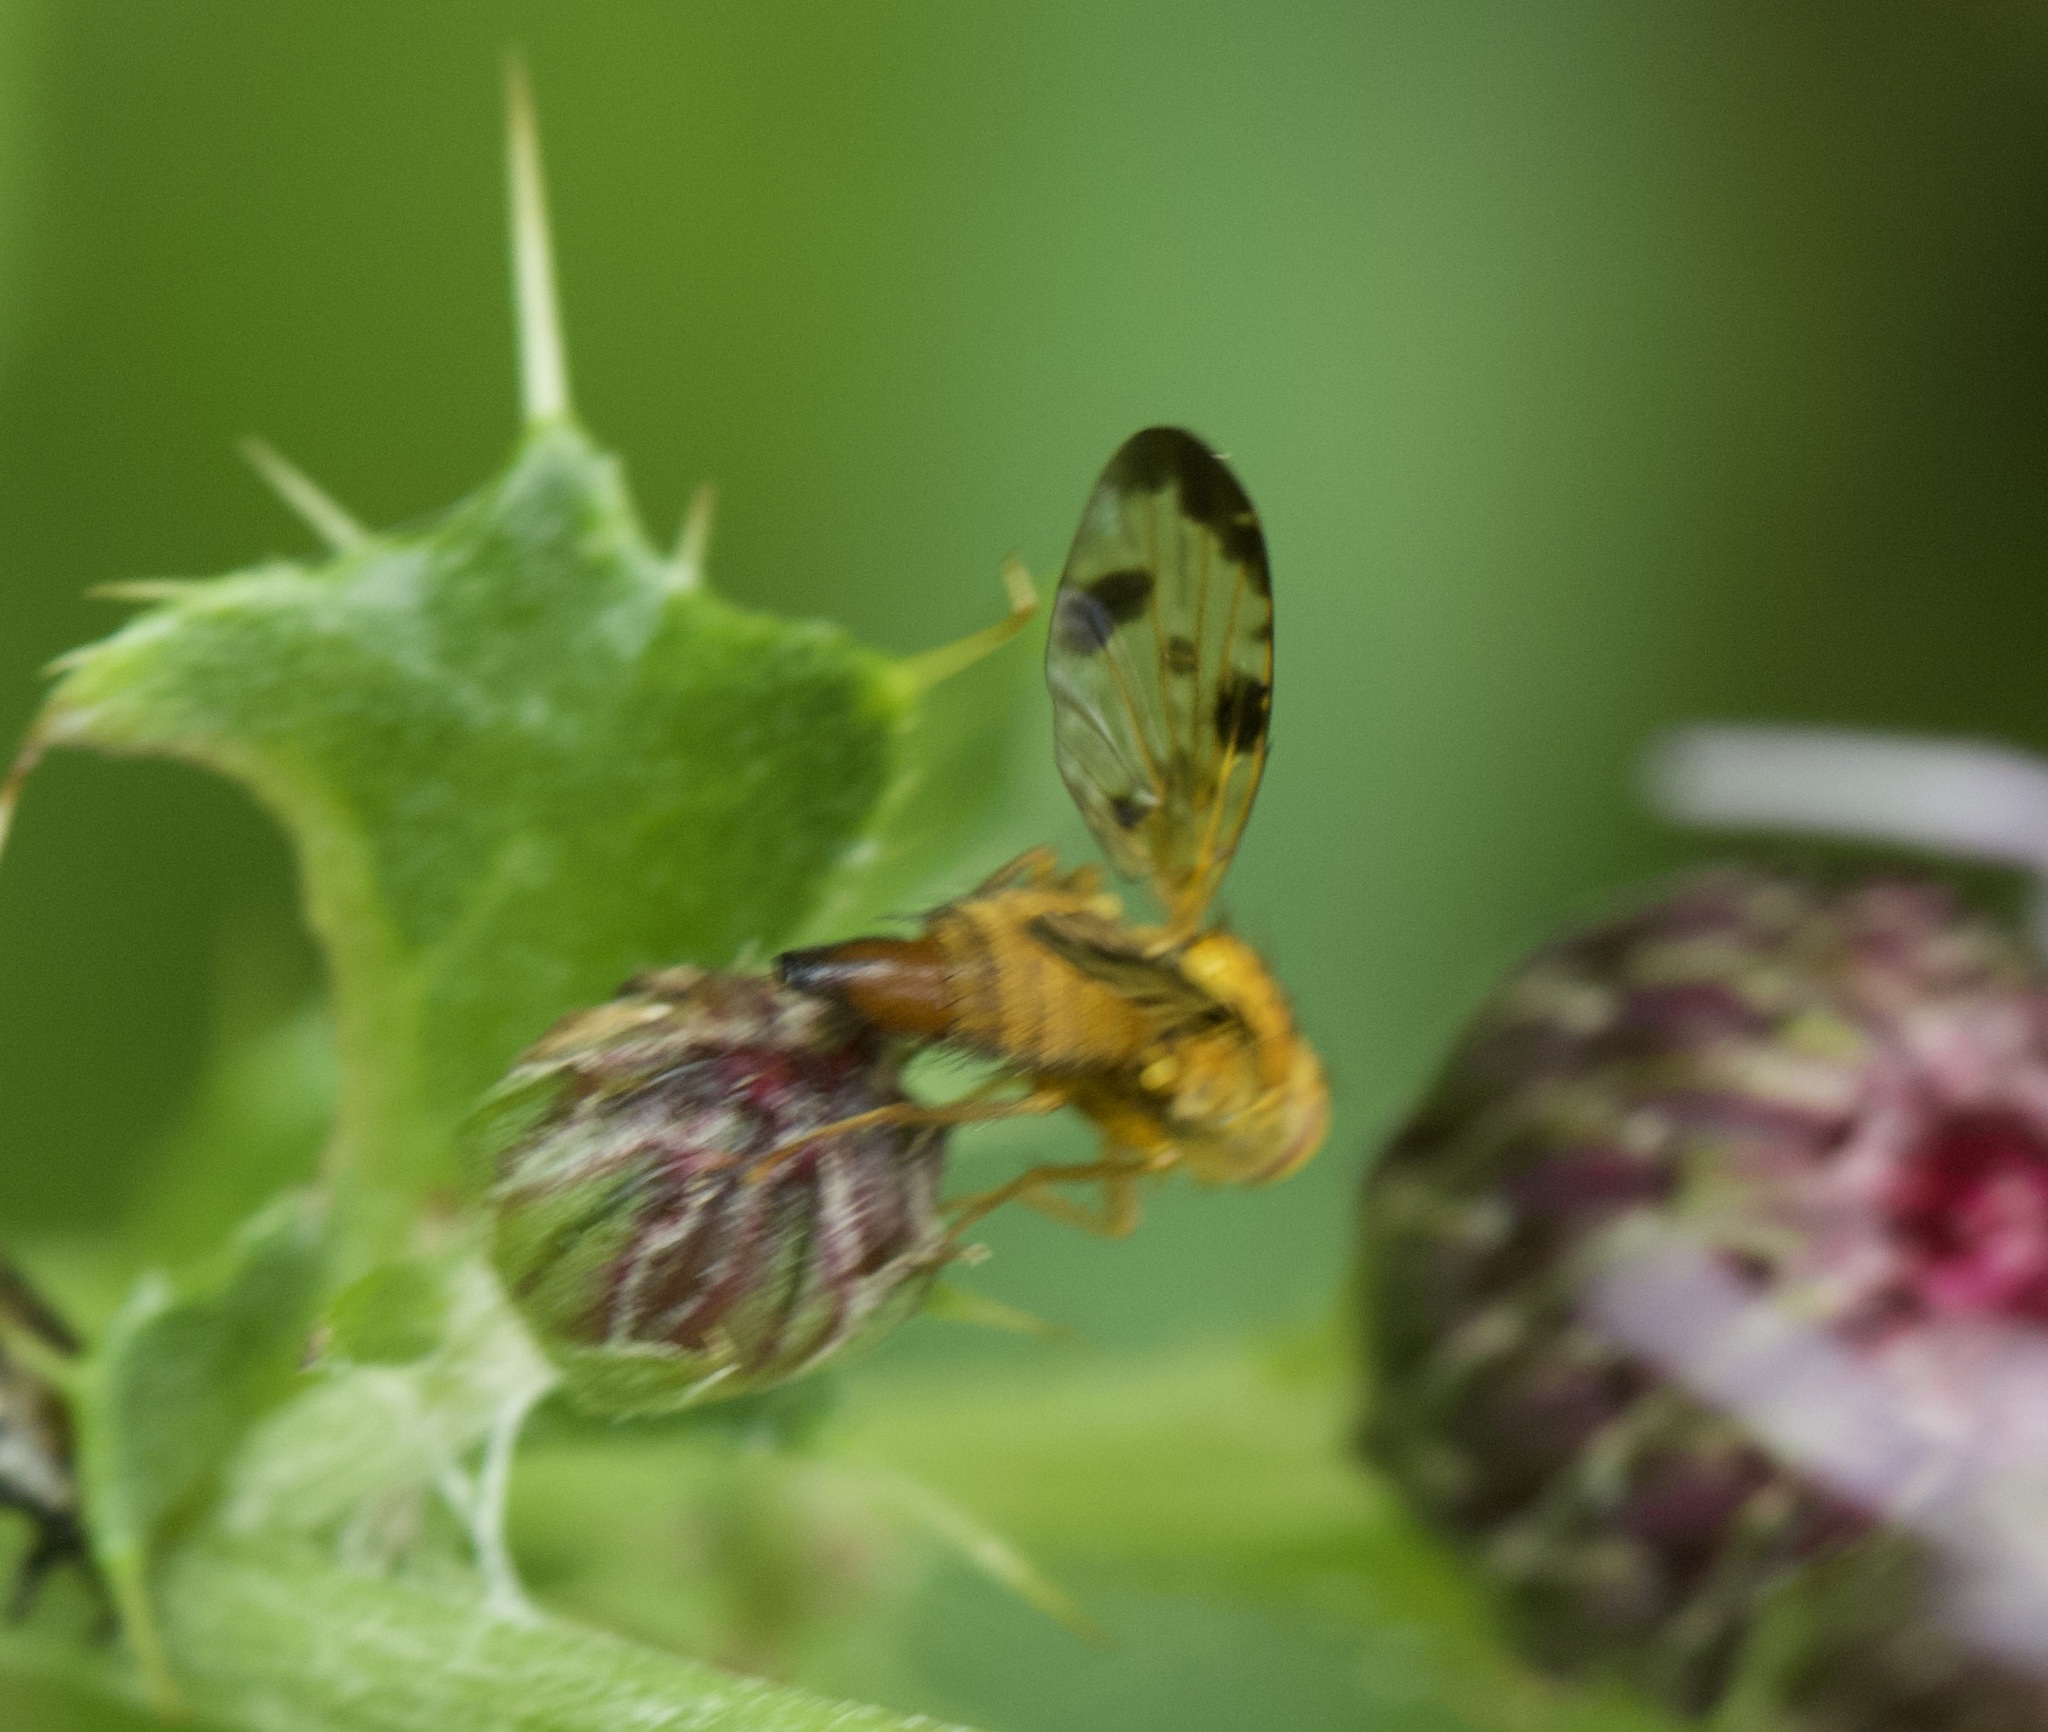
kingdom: Animalia
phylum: Arthropoda
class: Insecta
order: Diptera
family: Tephritidae
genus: Xyphosia
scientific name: Xyphosia miliaria
